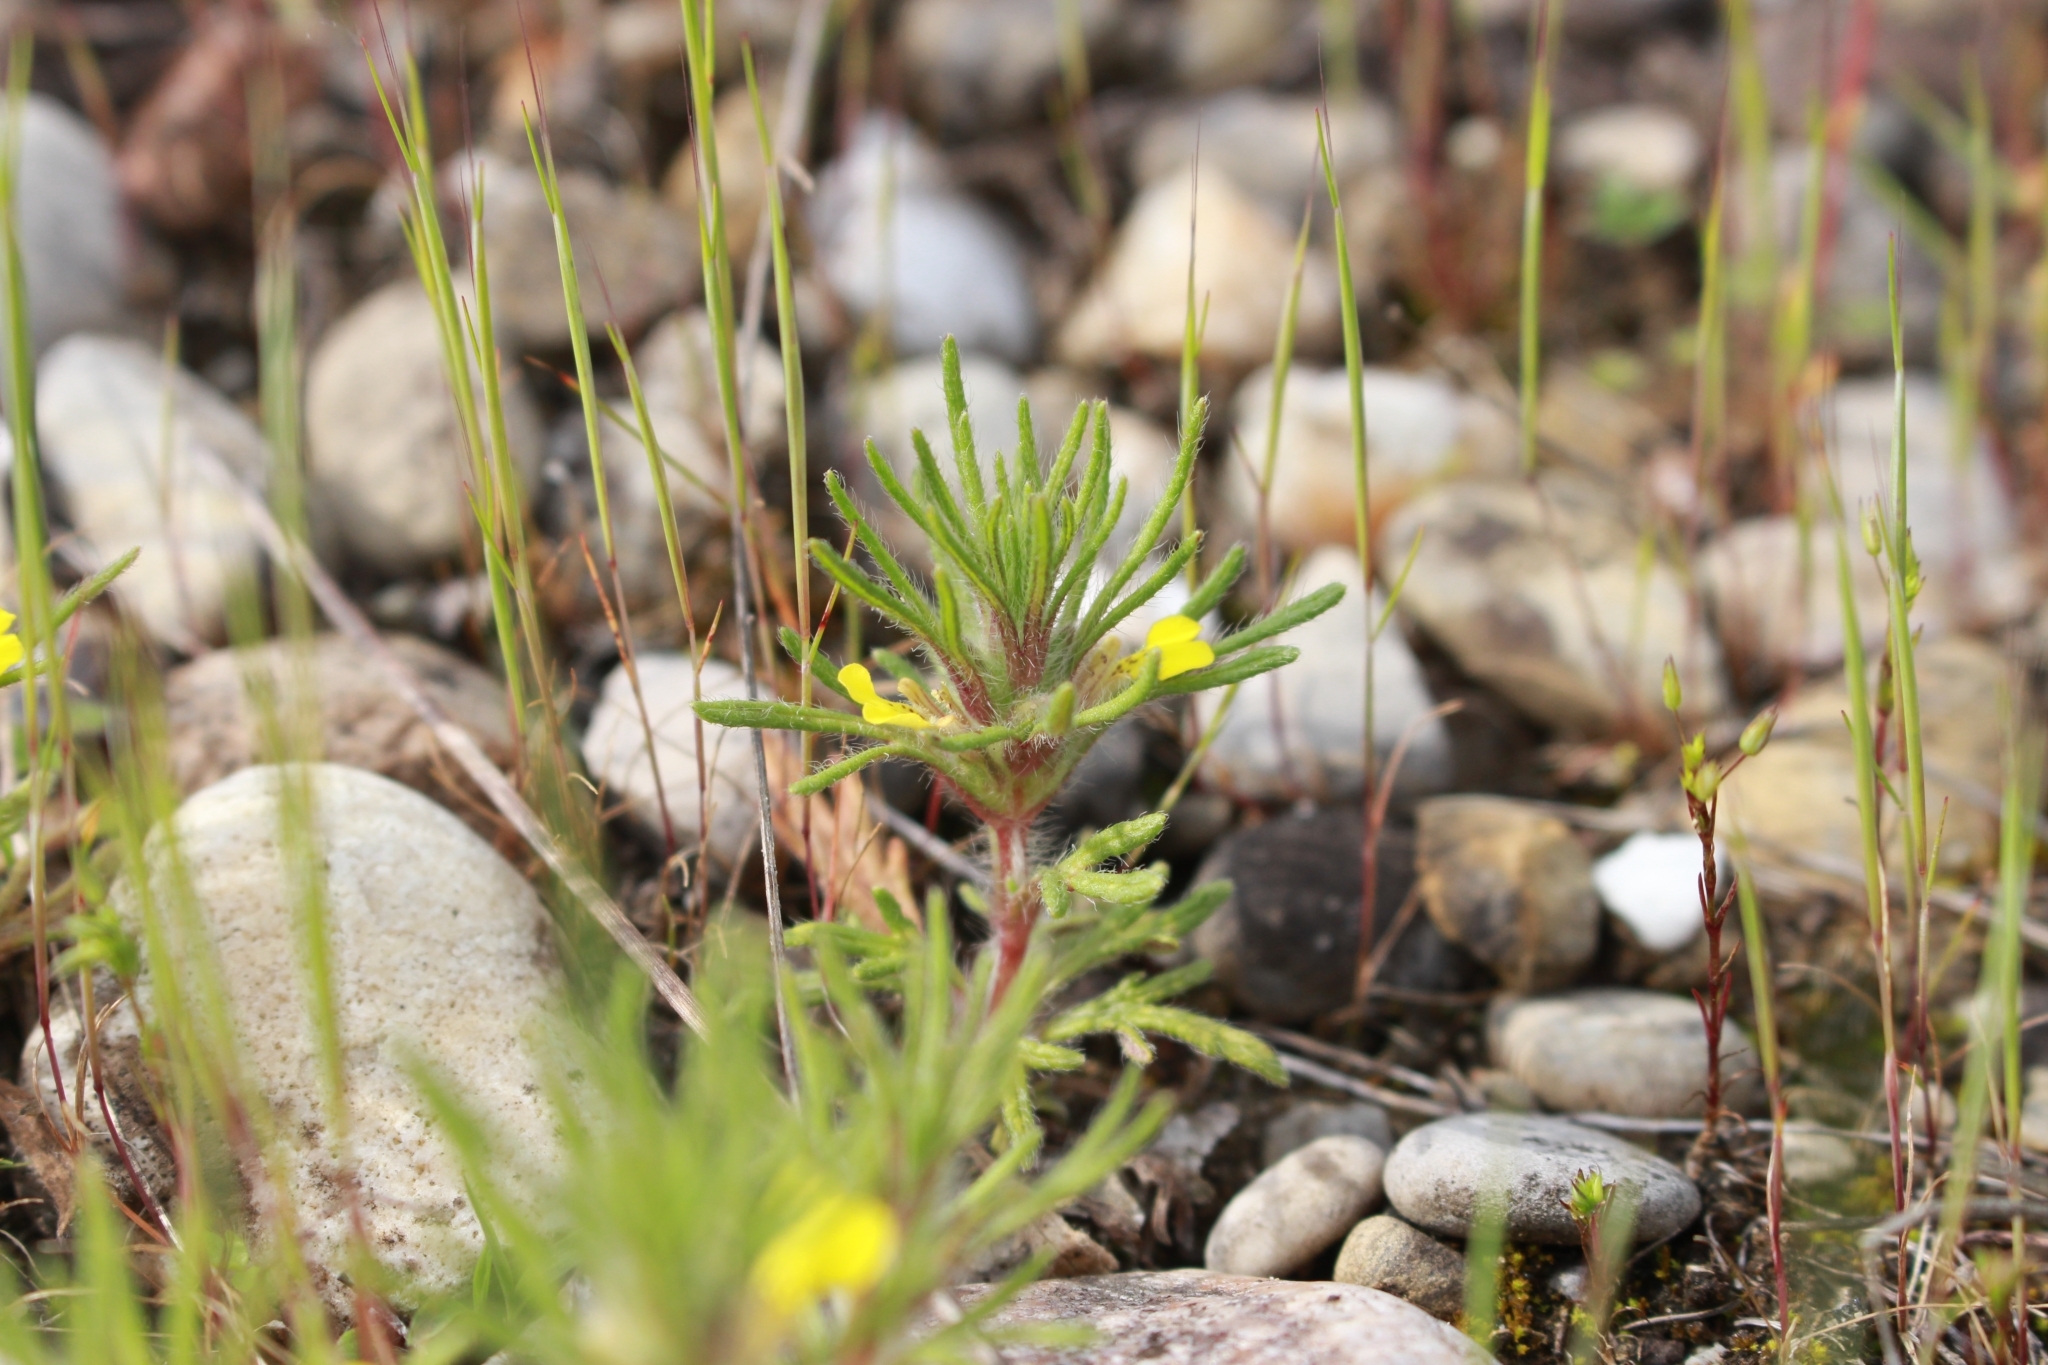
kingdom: Plantae
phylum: Tracheophyta
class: Magnoliopsida
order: Lamiales
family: Lamiaceae
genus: Ajuga
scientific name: Ajuga chamaepitys
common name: Ground-pine
